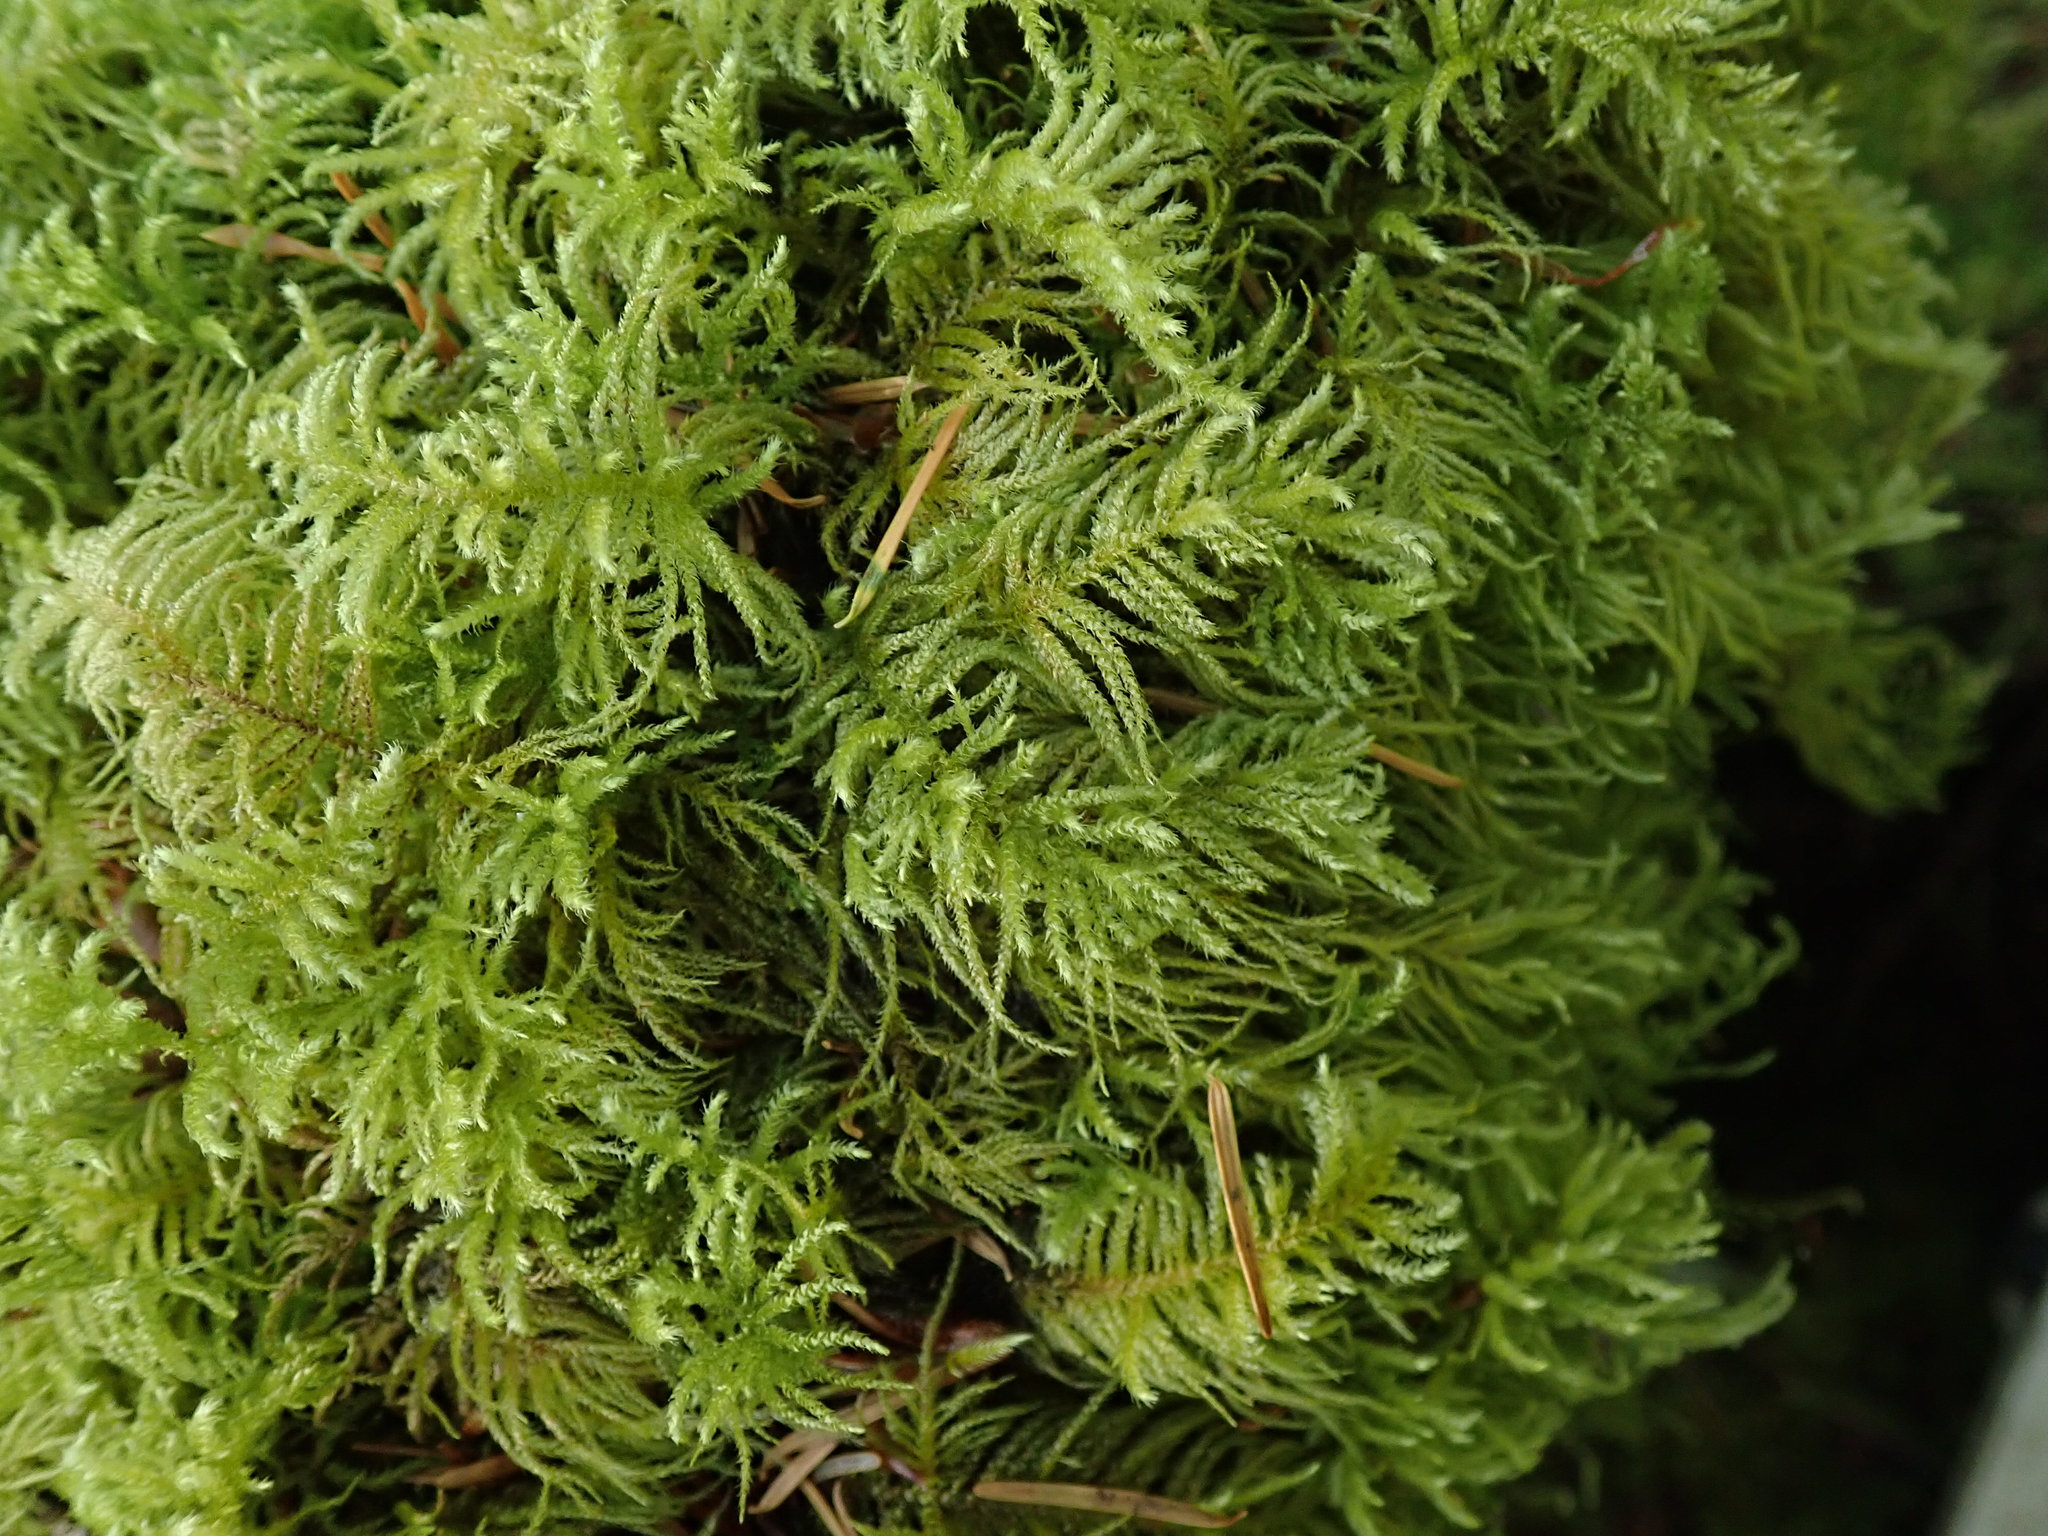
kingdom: Plantae
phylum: Bryophyta
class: Bryopsida
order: Hypnales
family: Brachytheciaceae
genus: Kindbergia
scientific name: Kindbergia oregana
